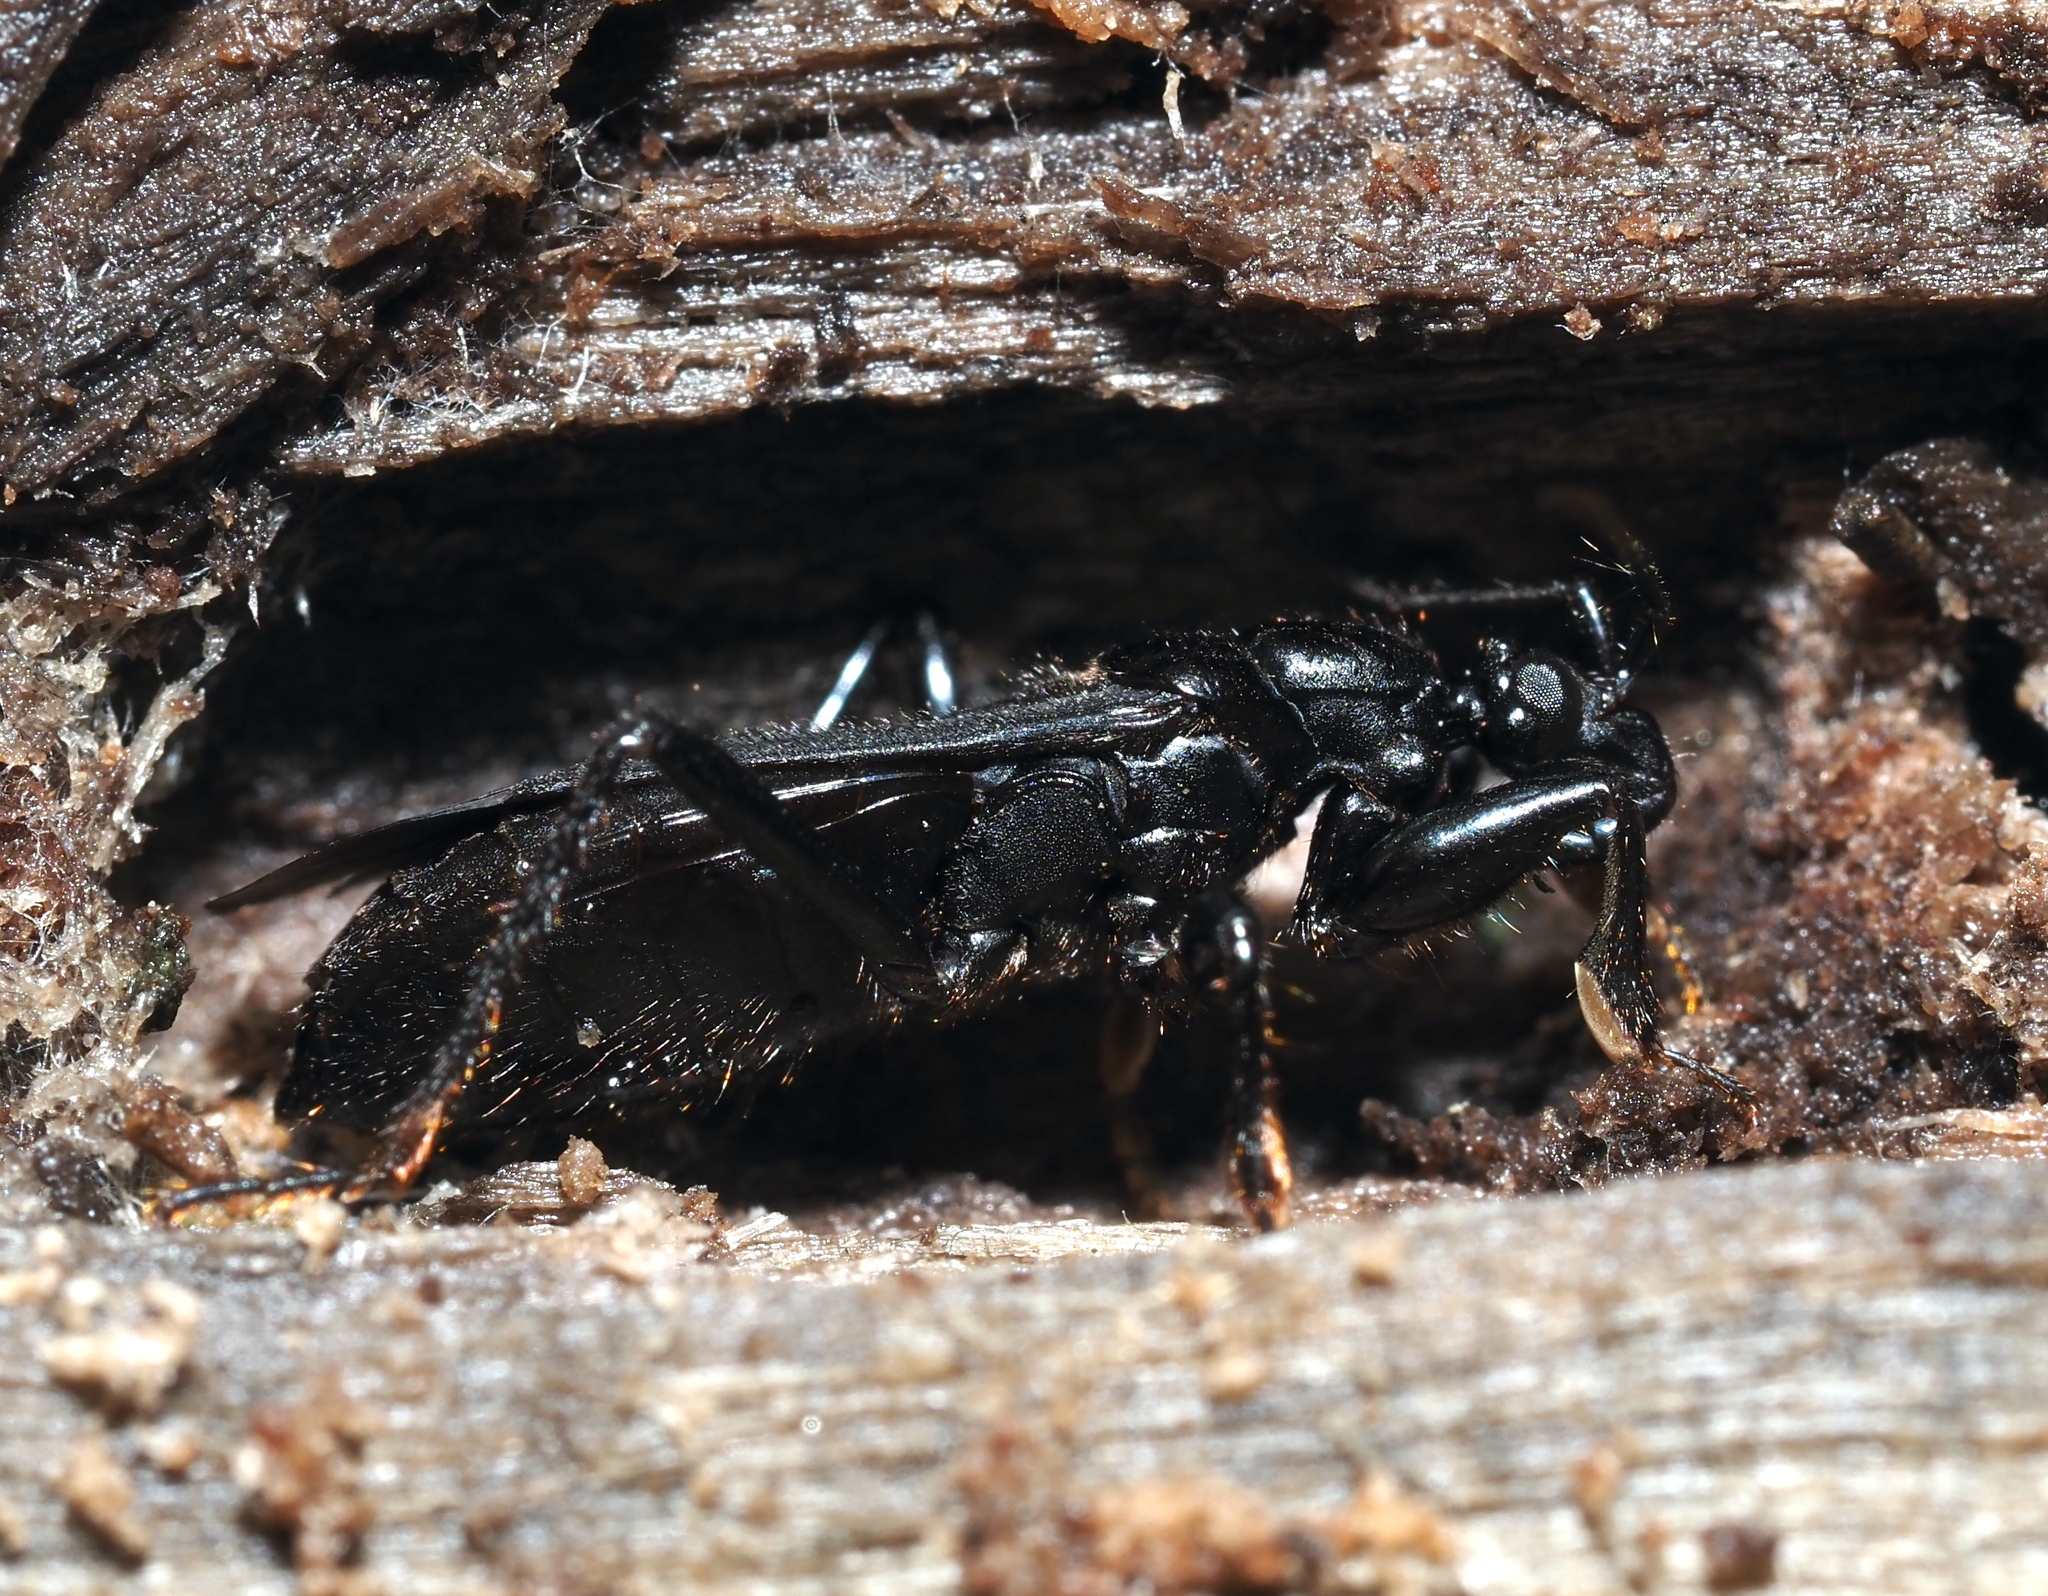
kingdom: Animalia
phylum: Arthropoda
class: Insecta
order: Hemiptera
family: Reduviidae
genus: Melanolestes
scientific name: Melanolestes picipes
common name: Assassin bug
